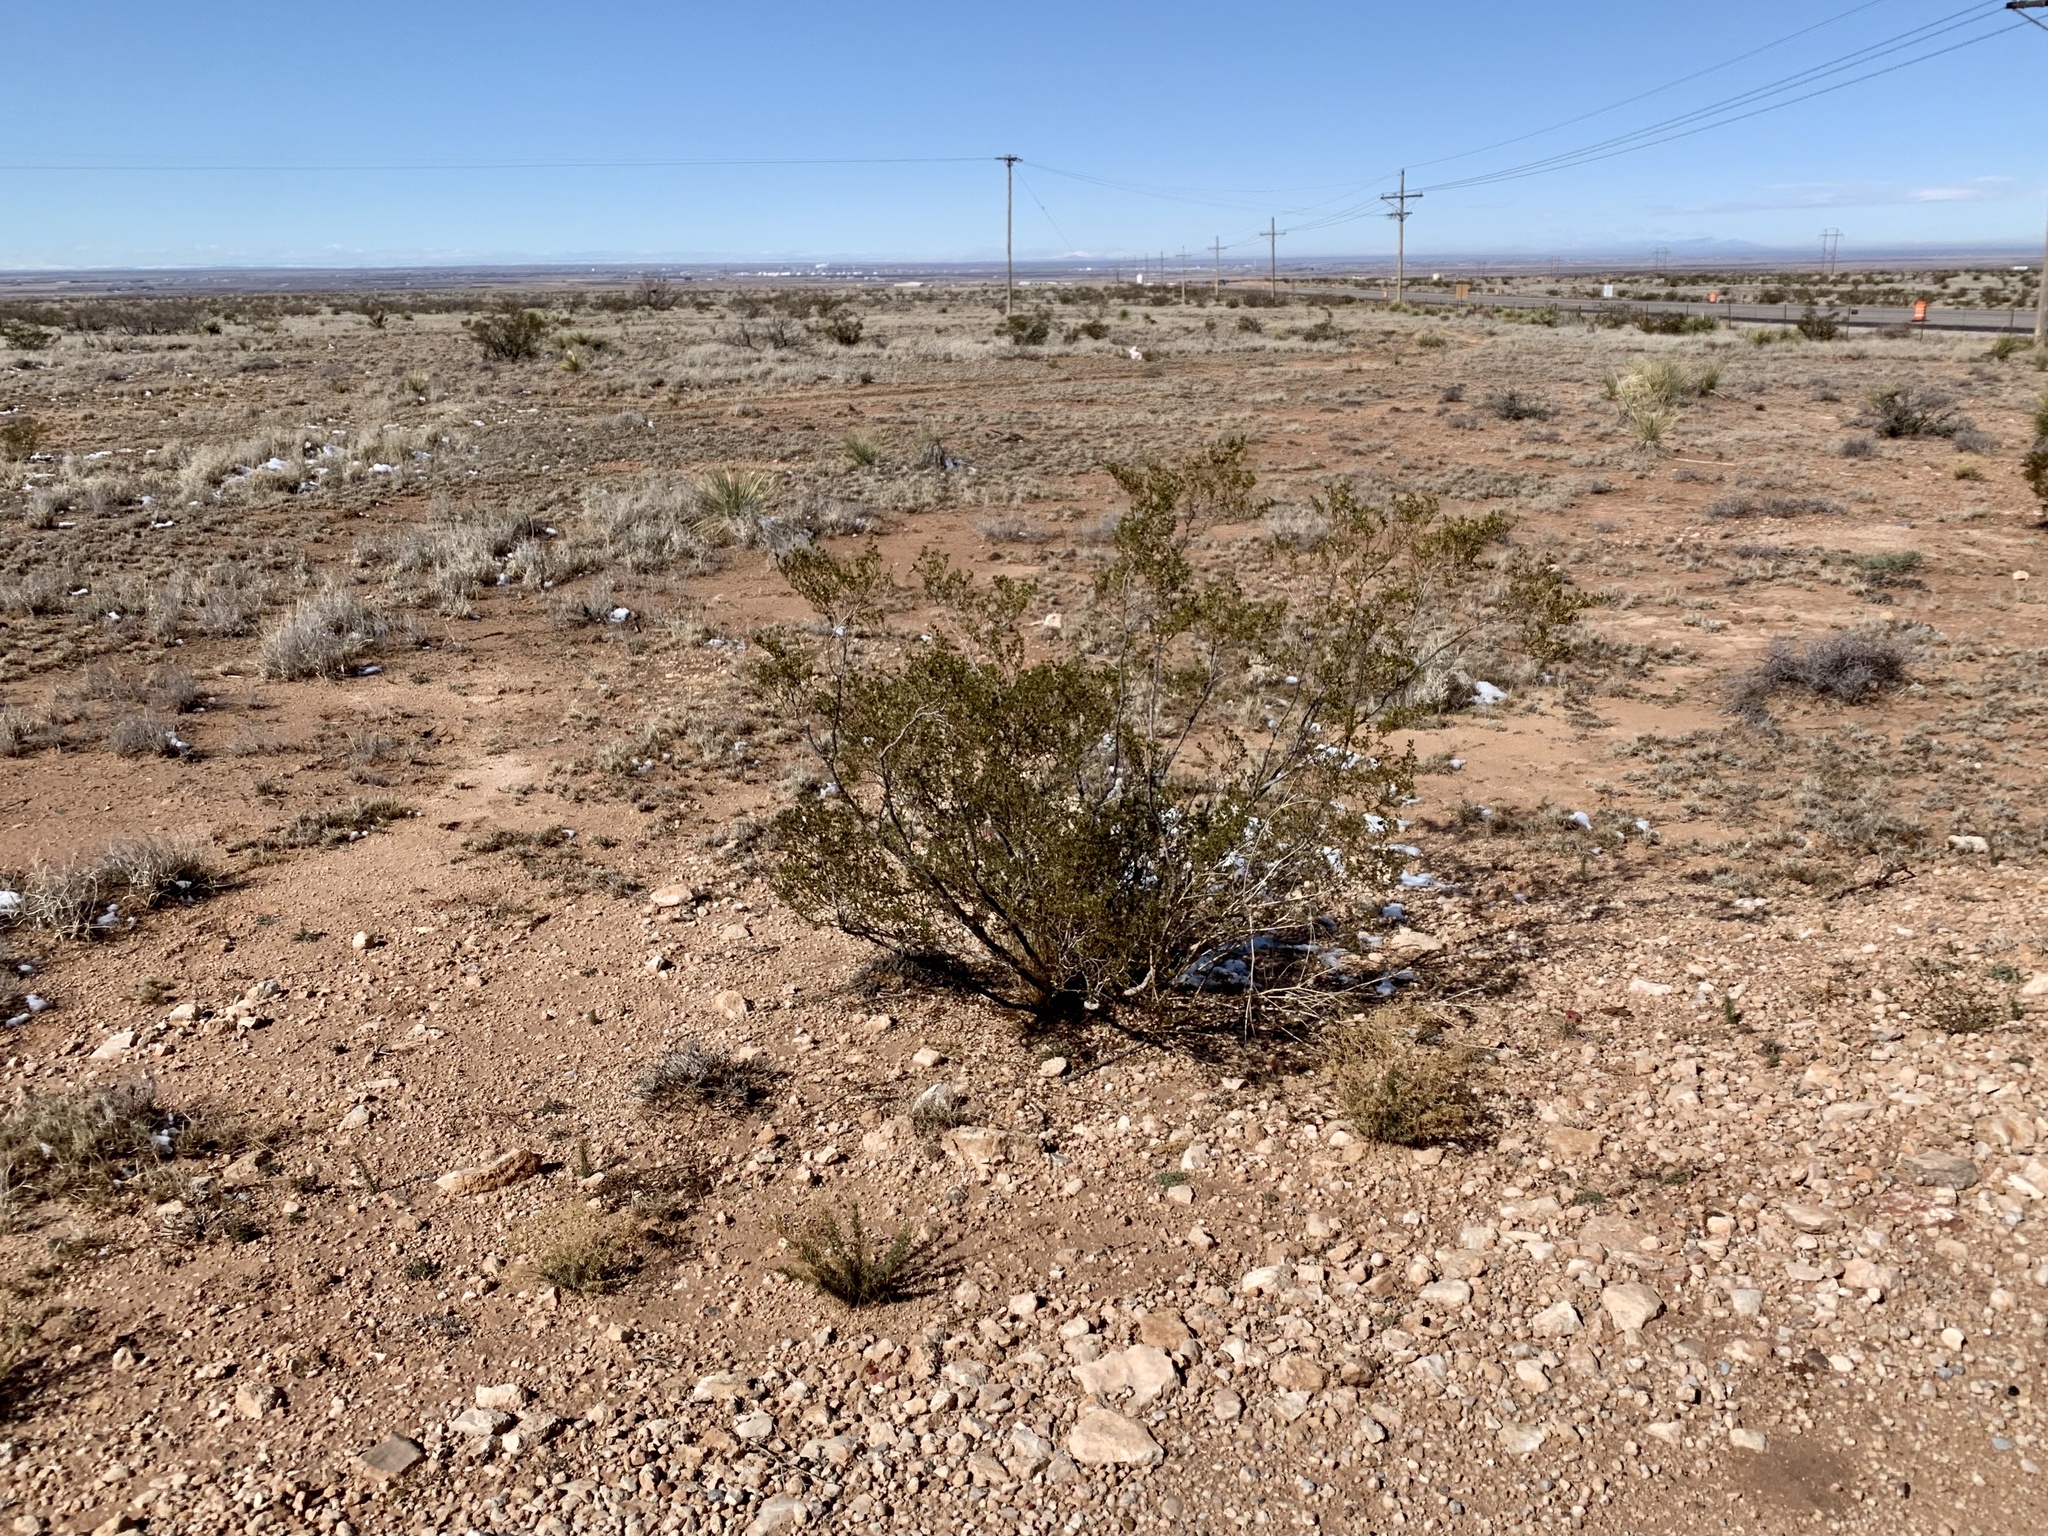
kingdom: Plantae
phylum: Tracheophyta
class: Magnoliopsida
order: Zygophyllales
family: Zygophyllaceae
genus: Larrea
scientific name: Larrea tridentata
